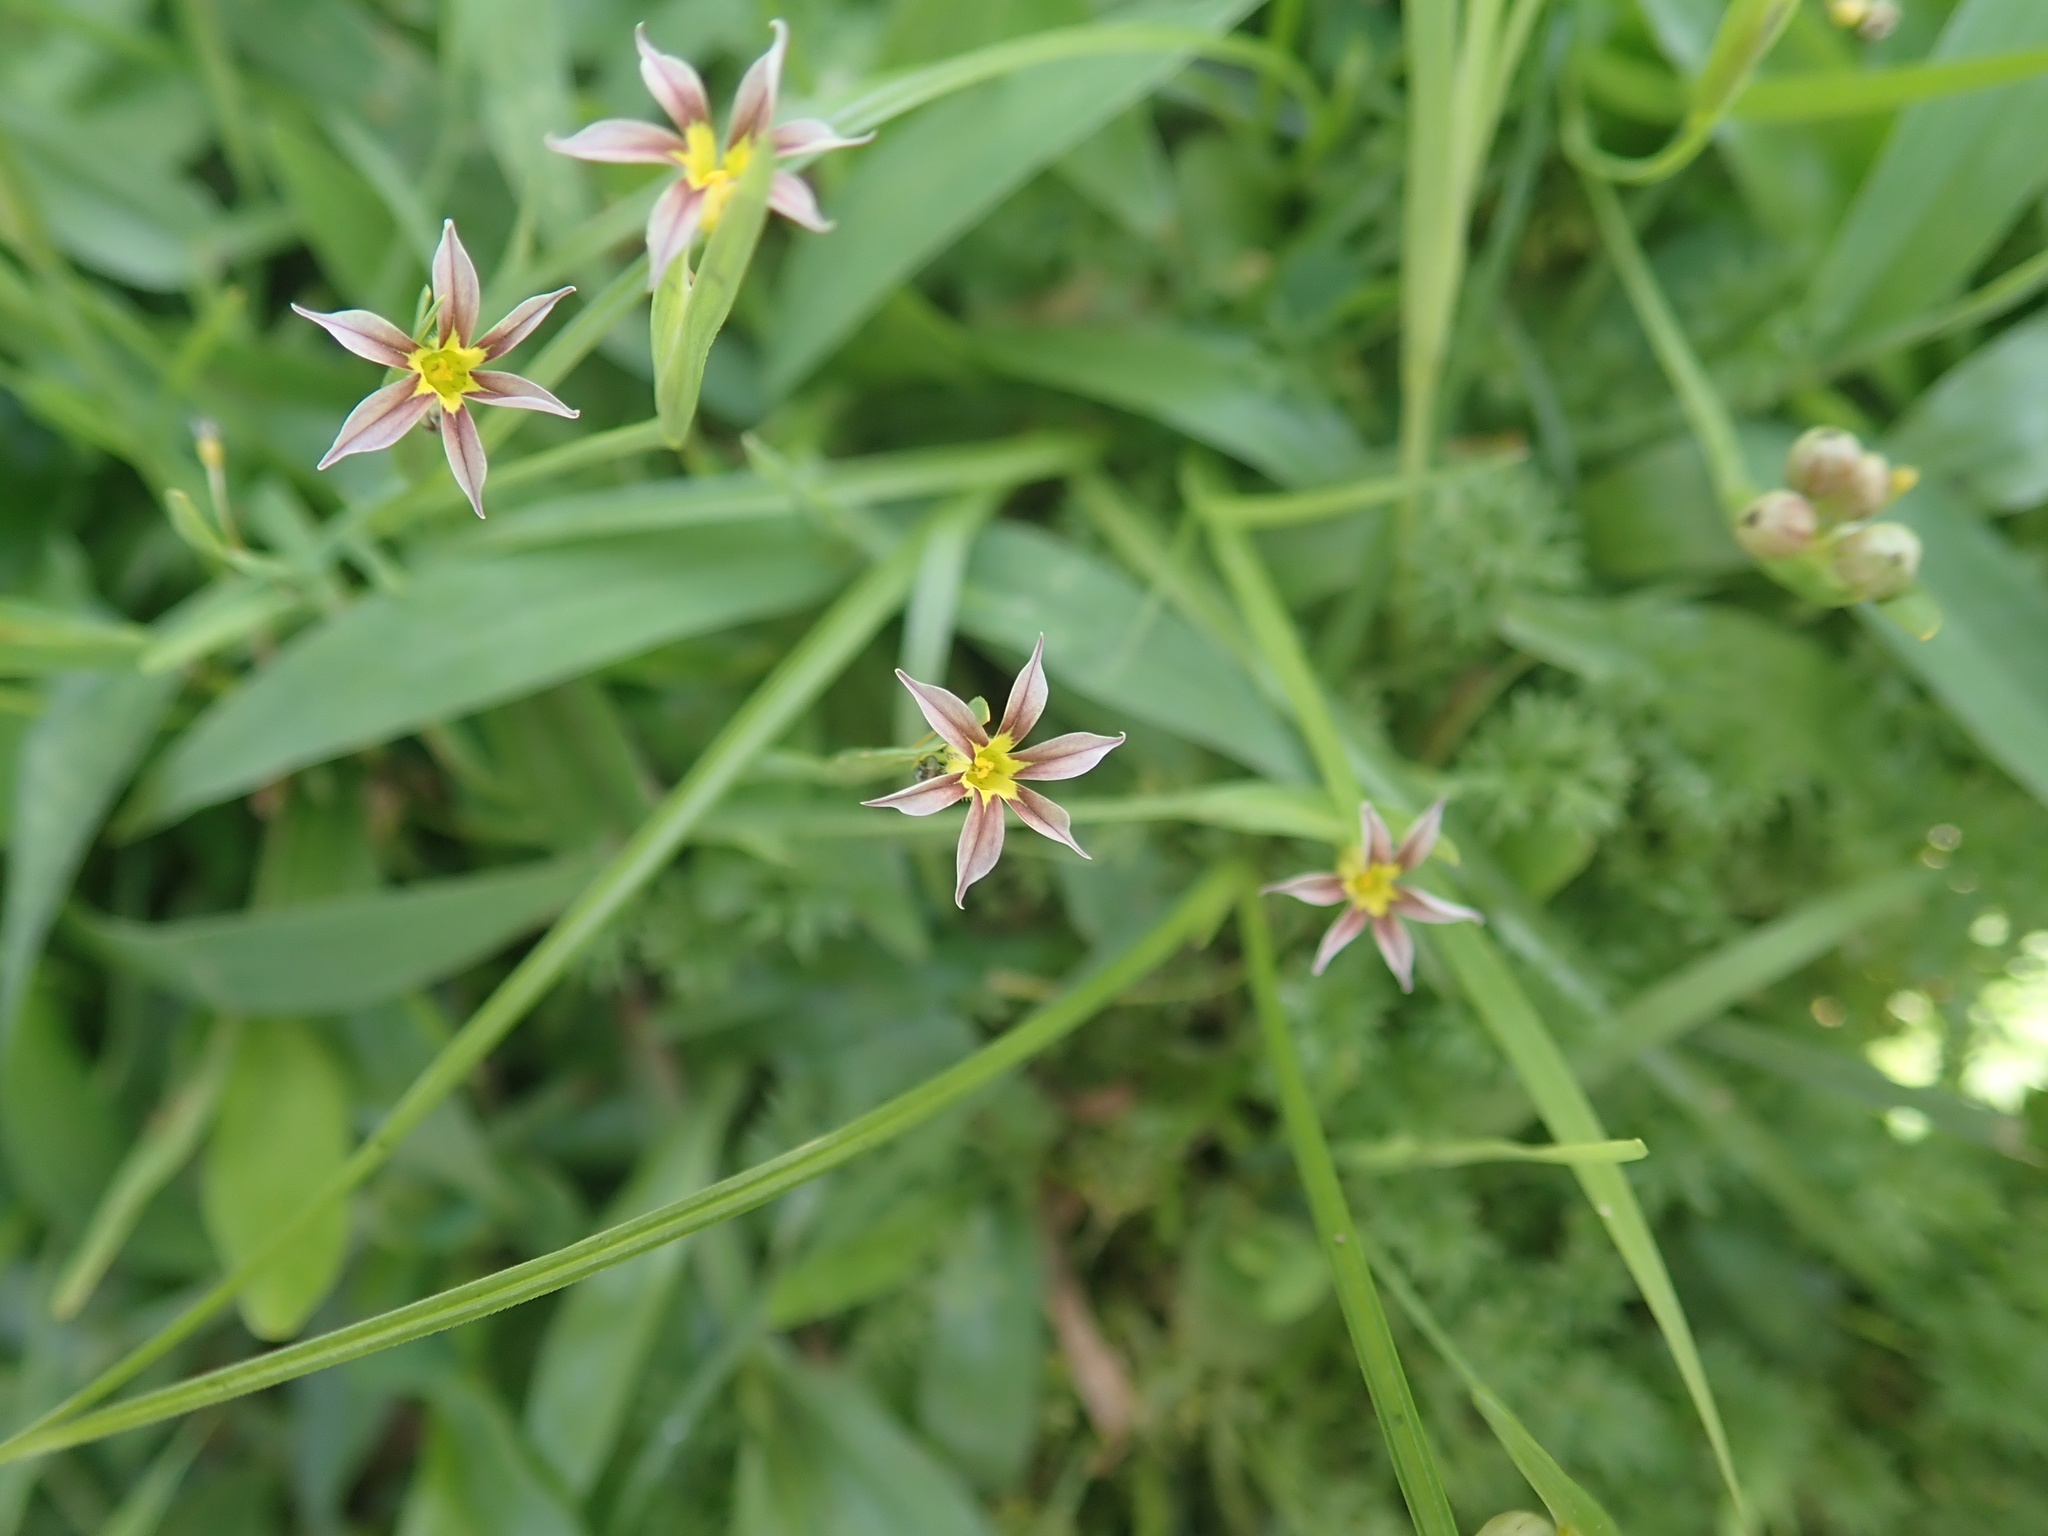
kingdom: Plantae
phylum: Tracheophyta
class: Liliopsida
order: Asparagales
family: Iridaceae
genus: Sisyrinchium
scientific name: Sisyrinchium micranthum
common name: Bermuda pigroot
